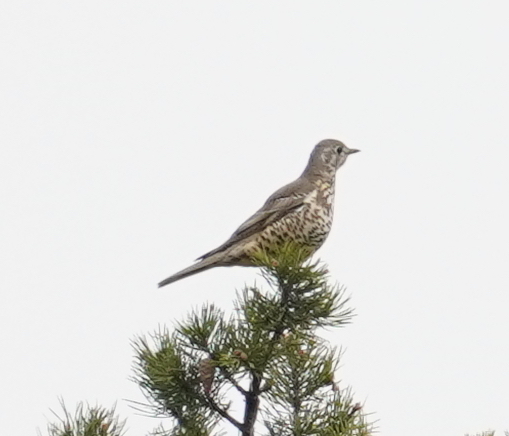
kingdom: Animalia
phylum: Chordata
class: Aves
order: Passeriformes
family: Turdidae
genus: Turdus
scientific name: Turdus viscivorus
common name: Mistle thrush
